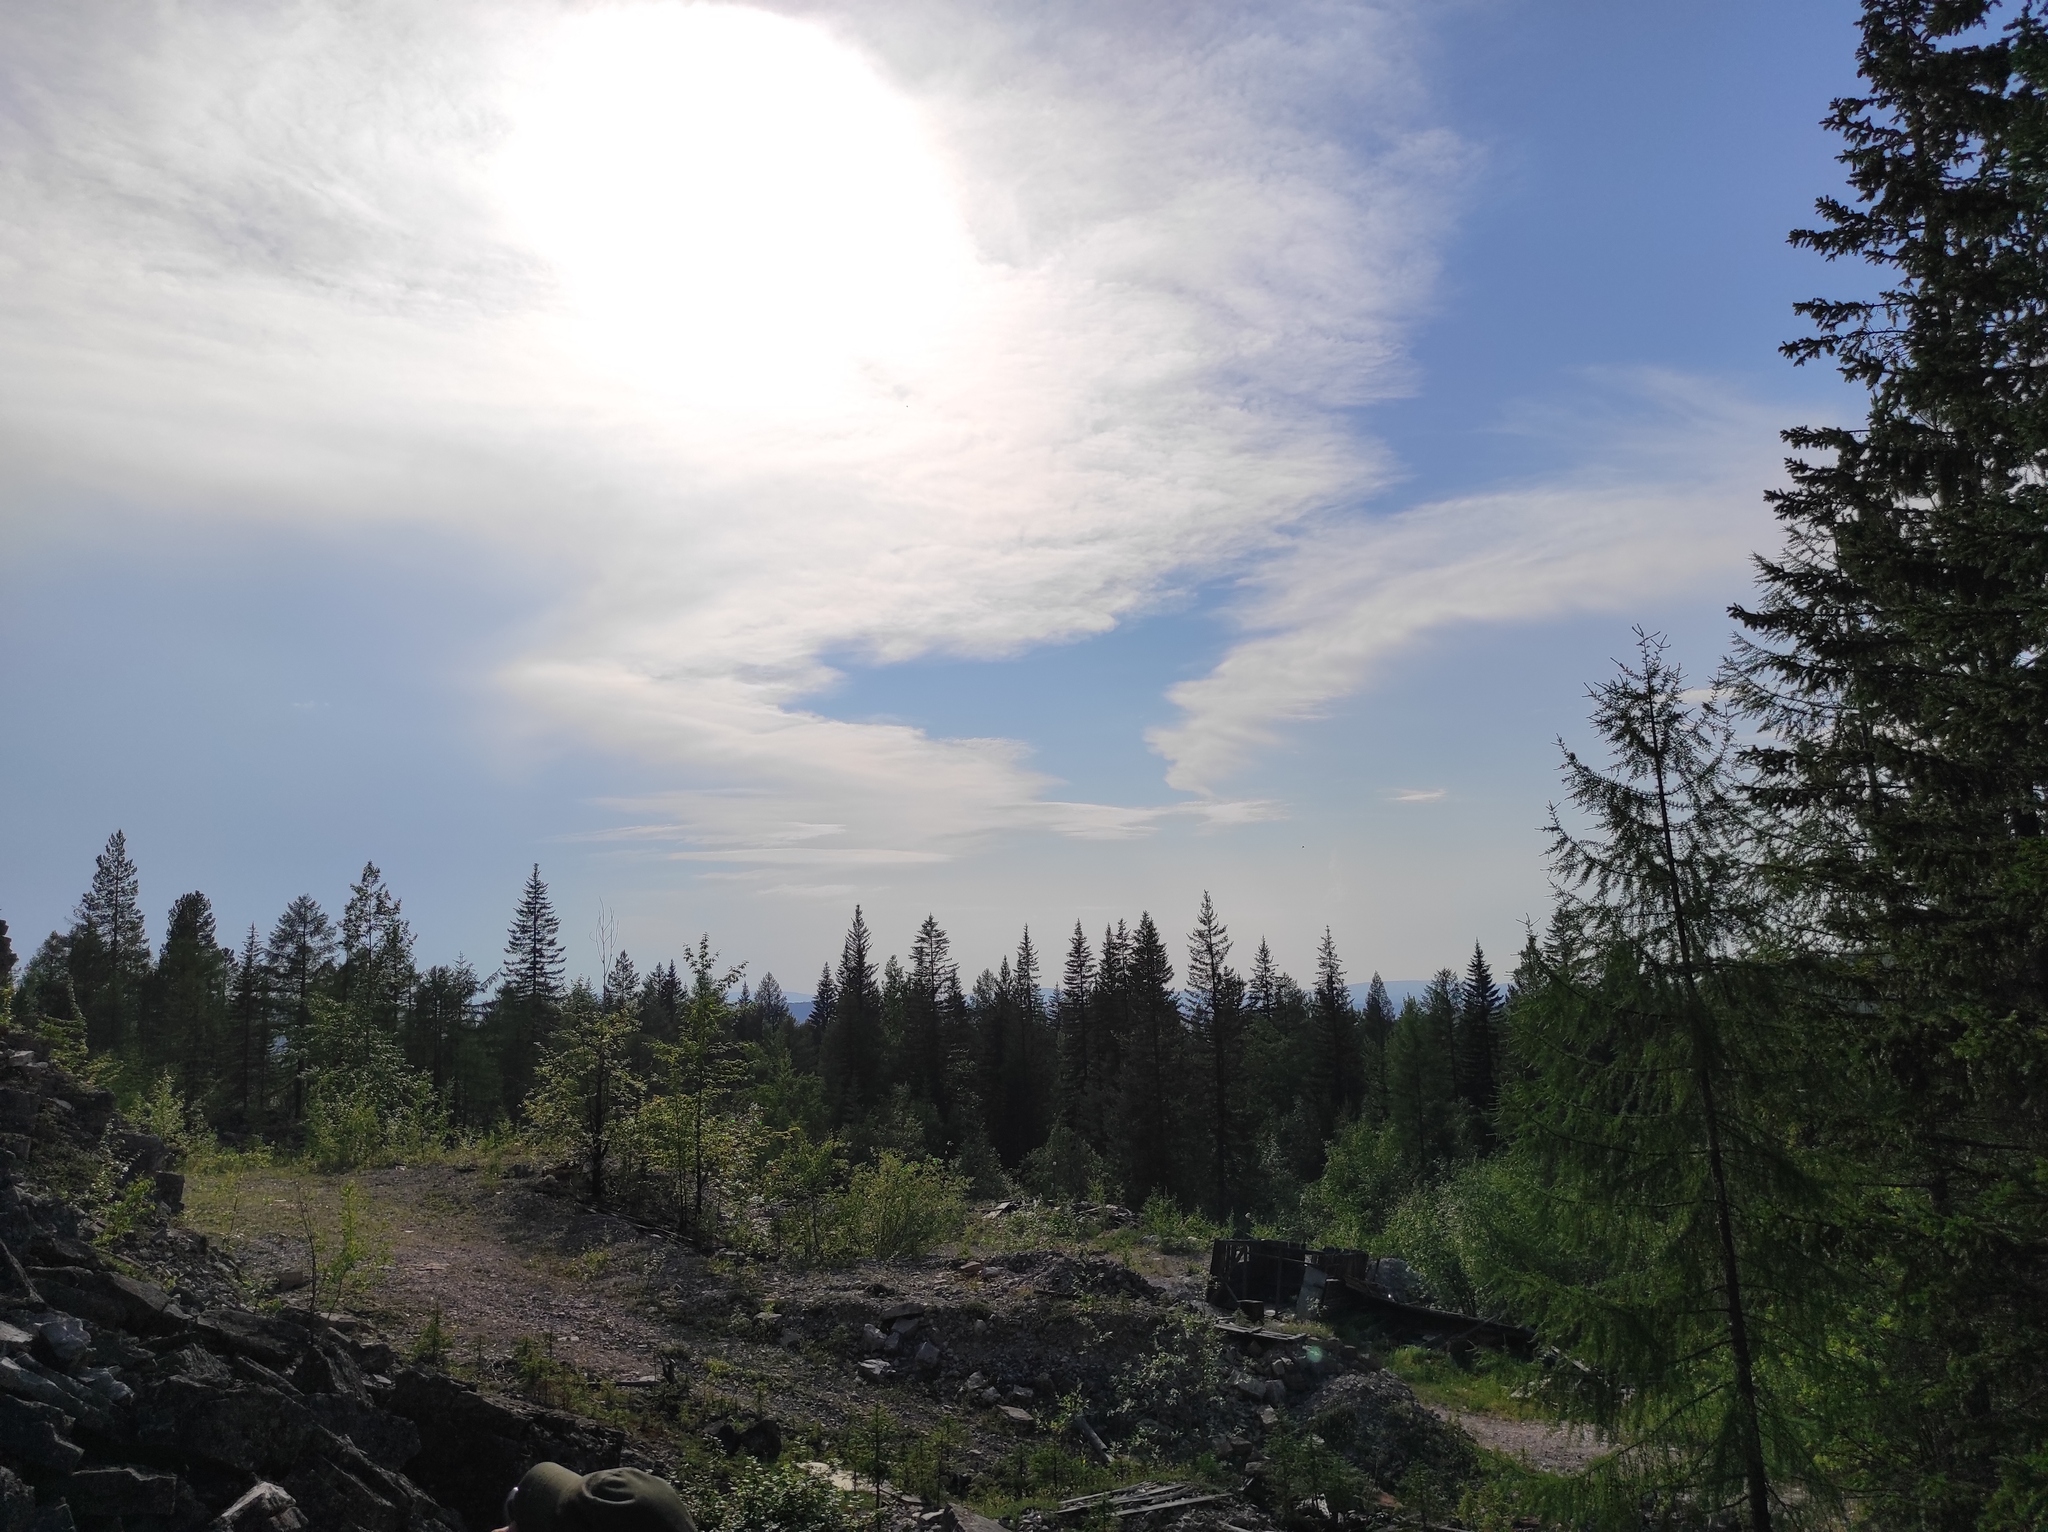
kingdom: Plantae
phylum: Tracheophyta
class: Pinopsida
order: Pinales
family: Pinaceae
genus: Pinus
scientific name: Pinus sylvestris
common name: Scots pine
